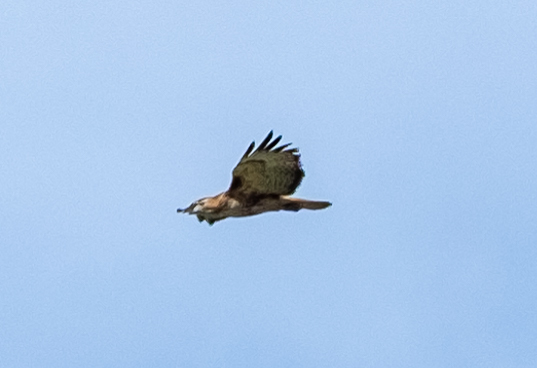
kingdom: Animalia
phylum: Chordata
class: Aves
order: Accipitriformes
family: Accipitridae
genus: Buteo
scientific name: Buteo jamaicensis
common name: Red-tailed hawk
